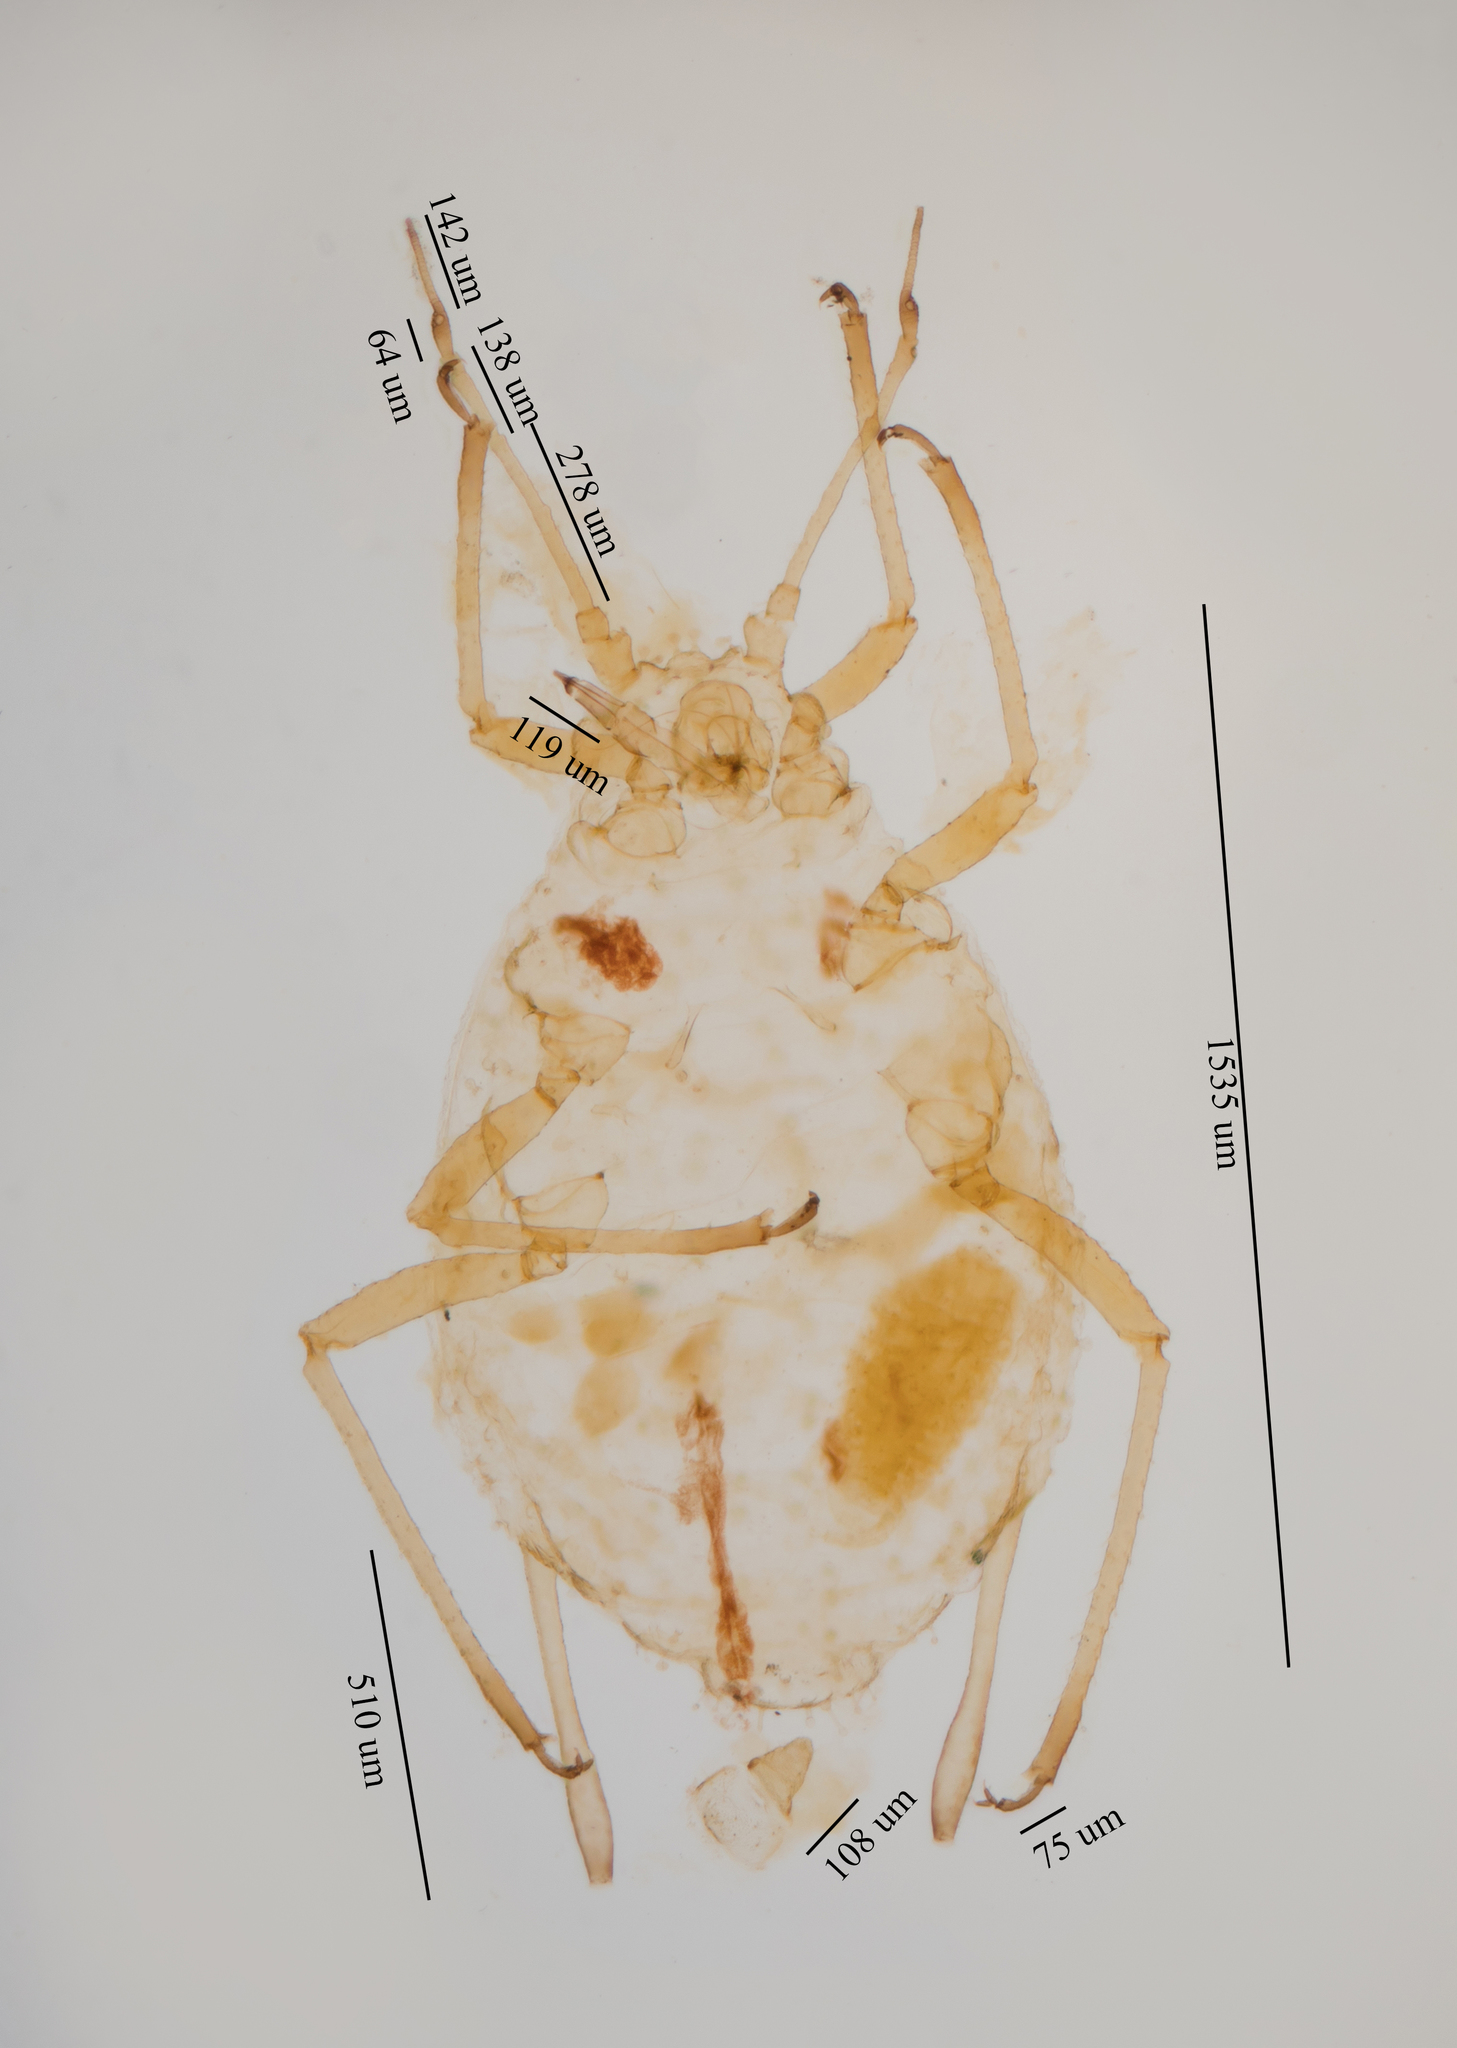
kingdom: Animalia
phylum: Arthropoda
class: Insecta
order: Hemiptera
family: Aphididae
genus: Vesiculaphis
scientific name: Vesiculaphis
